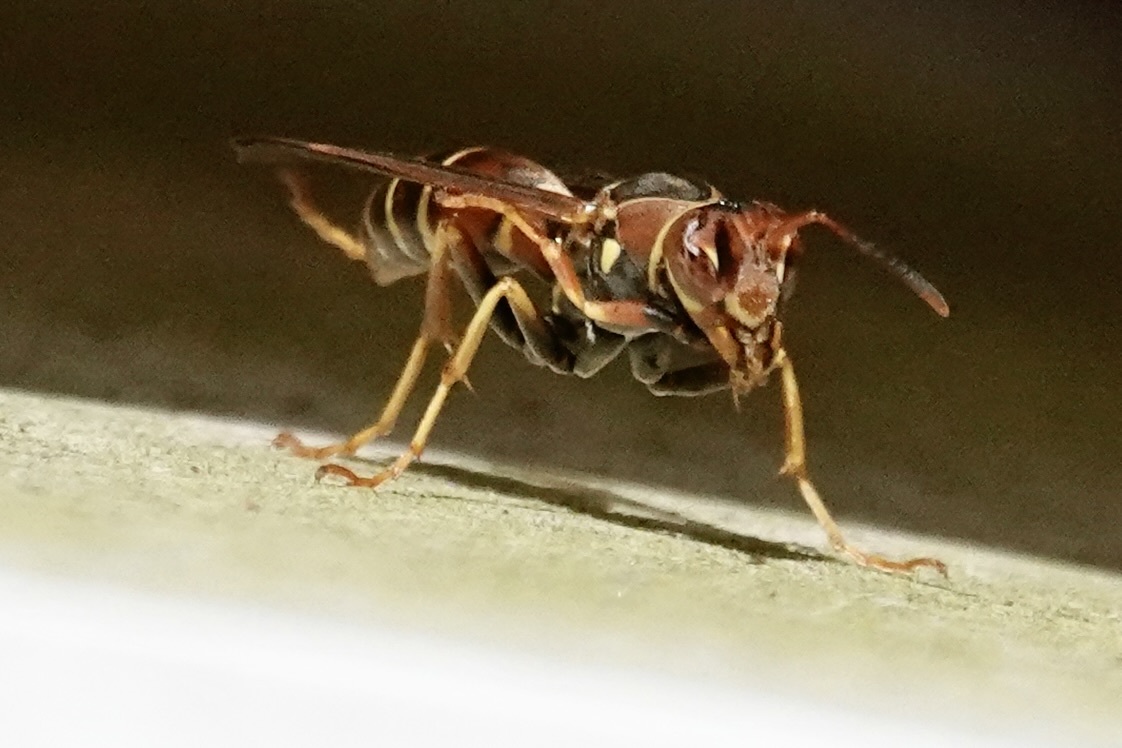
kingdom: Animalia
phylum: Arthropoda
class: Insecta
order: Hymenoptera
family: Eumenidae
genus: Polistes
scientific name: Polistes dorsalis
